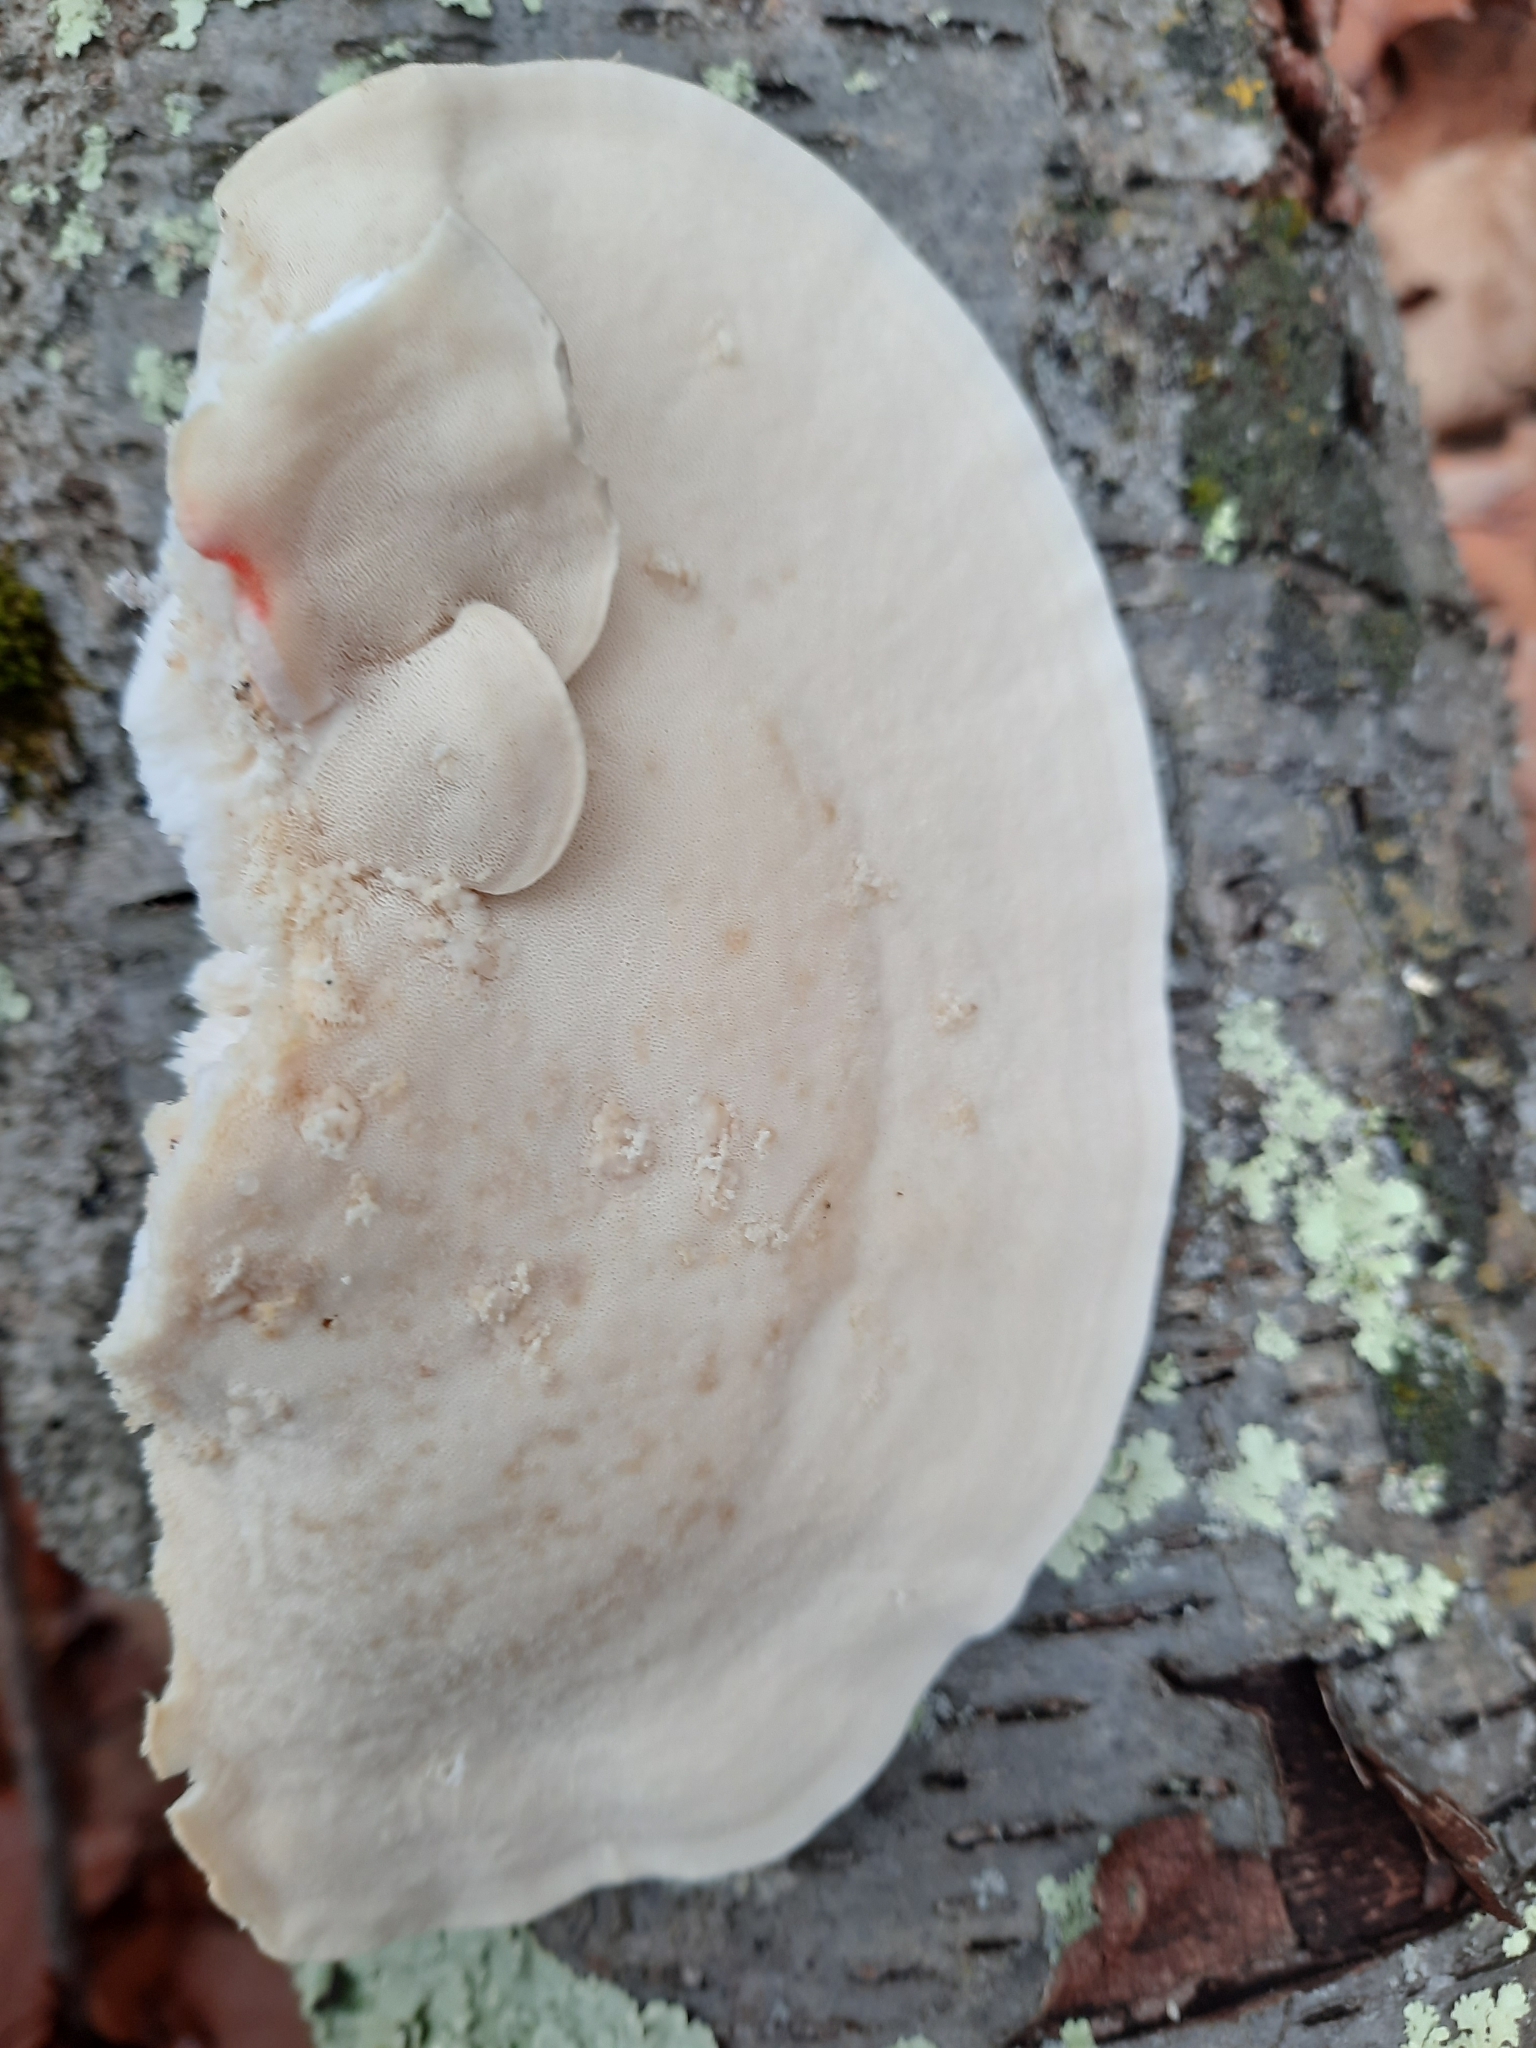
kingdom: Fungi
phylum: Basidiomycota
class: Agaricomycetes
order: Polyporales
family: Incrustoporiaceae
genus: Tyromyces
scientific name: Tyromyces chioneus
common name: White cheese polypore
